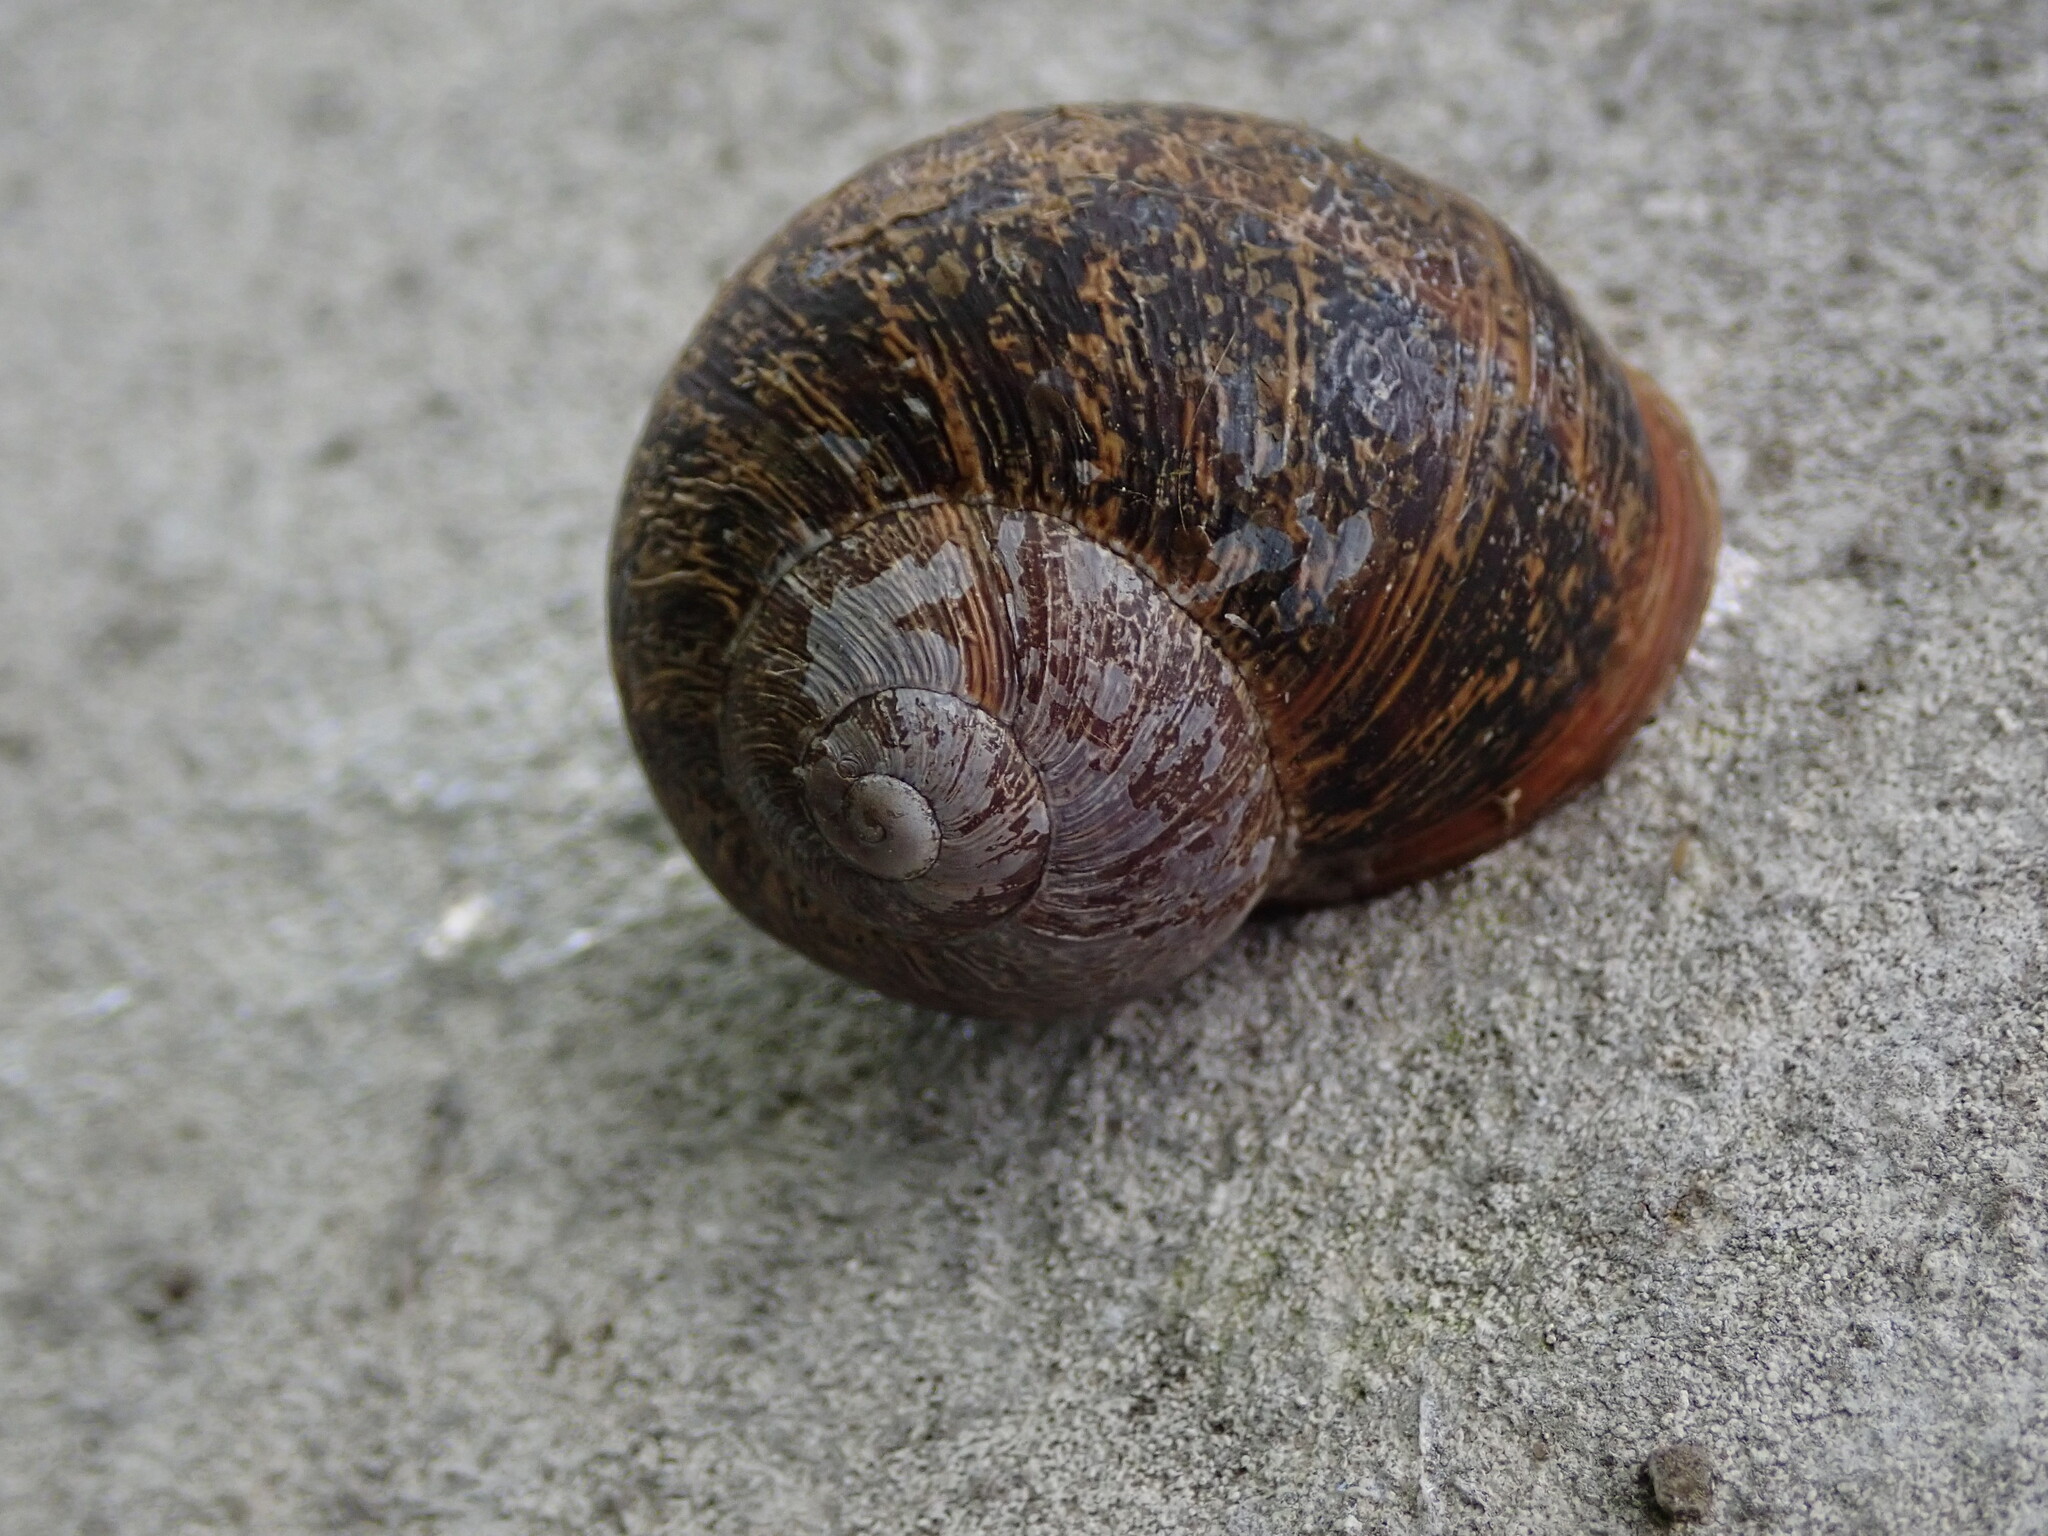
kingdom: Animalia
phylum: Mollusca
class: Gastropoda
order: Stylommatophora
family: Helicidae
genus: Cornu
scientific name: Cornu aspersum
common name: Brown garden snail
